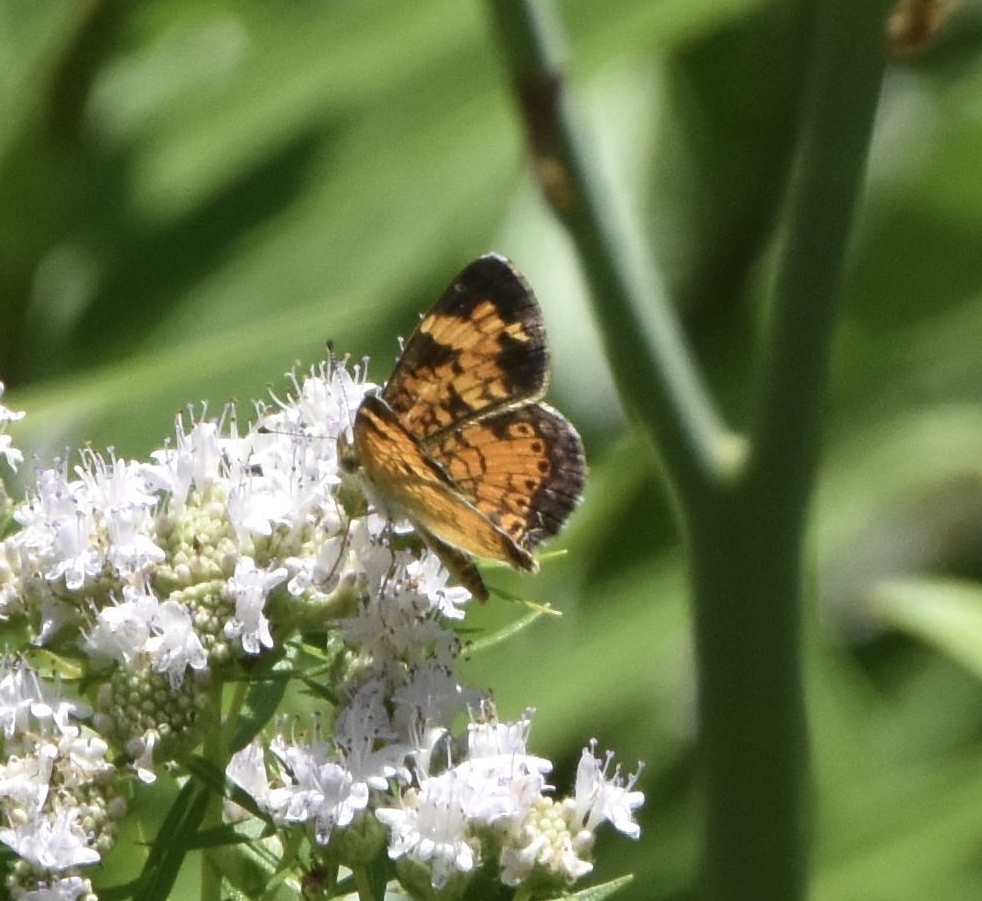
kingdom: Animalia
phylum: Arthropoda
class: Insecta
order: Lepidoptera
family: Nymphalidae
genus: Phyciodes
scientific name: Phyciodes tharos
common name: Pearl crescent
